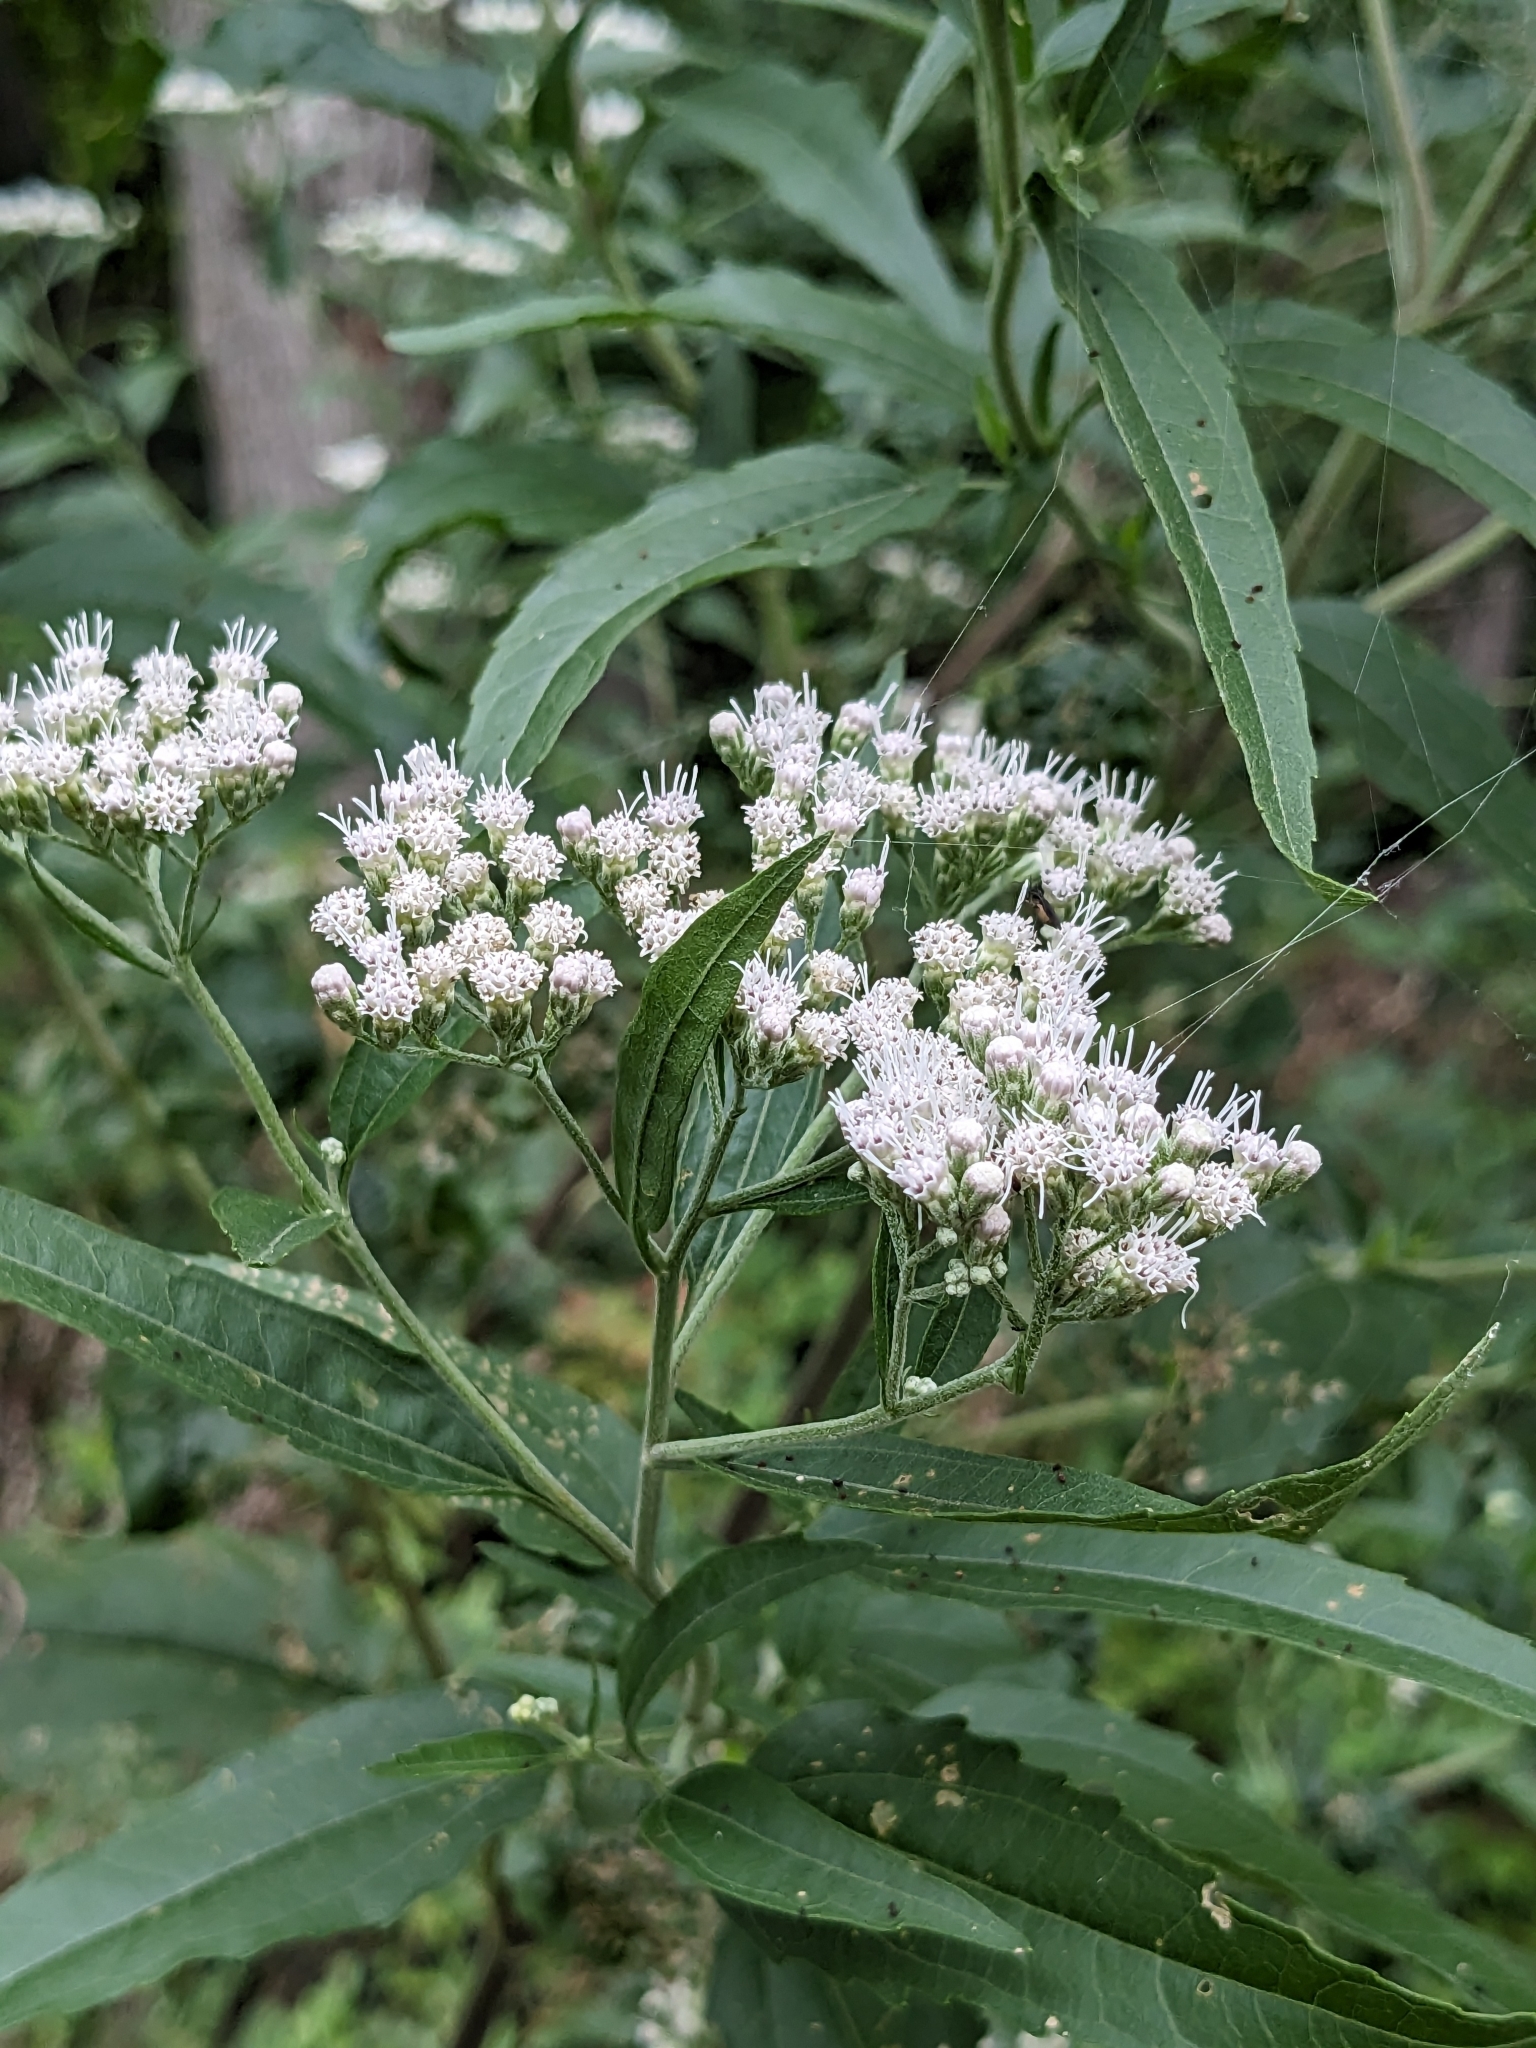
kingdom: Plantae
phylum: Tracheophyta
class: Magnoliopsida
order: Asterales
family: Asteraceae
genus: Eupatorium
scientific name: Eupatorium serotinum
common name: Late boneset
